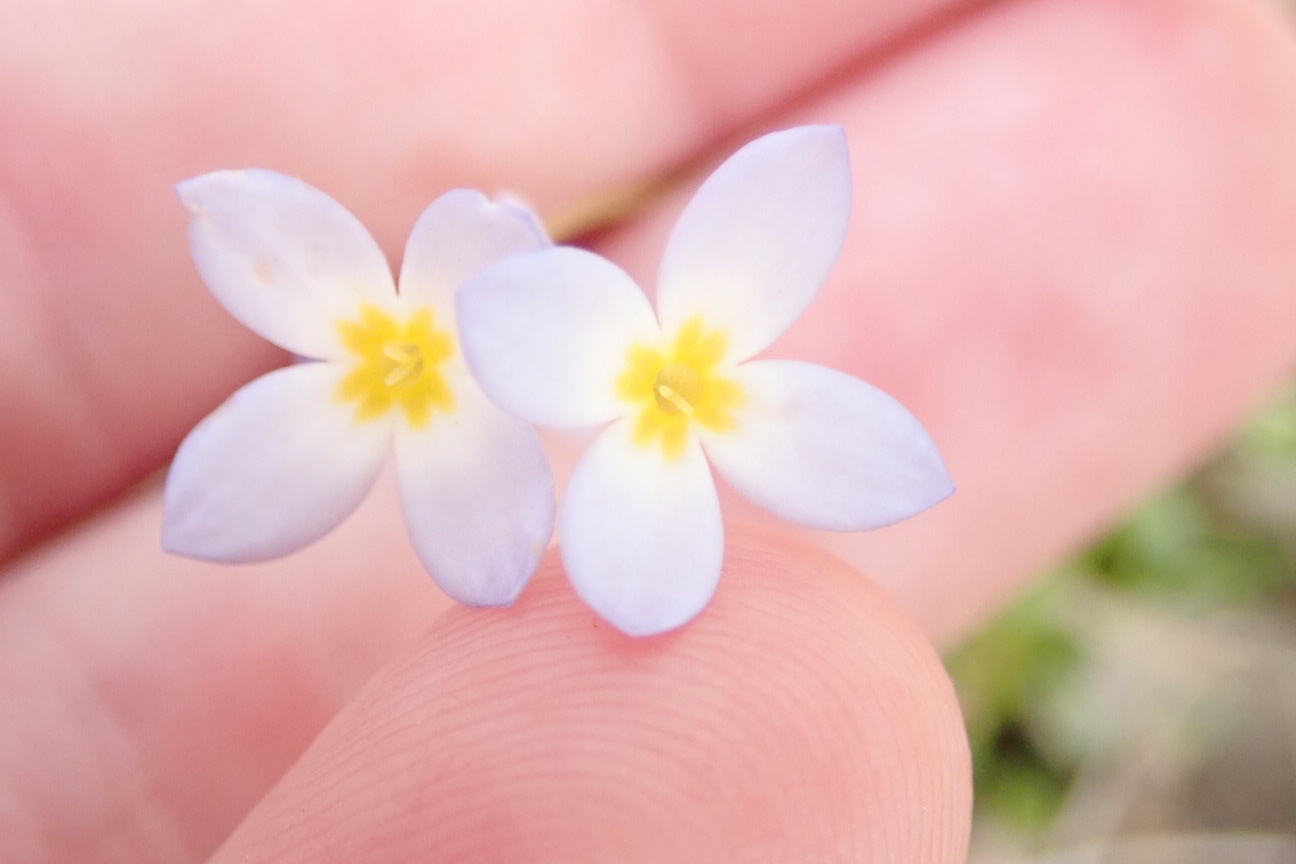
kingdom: Plantae
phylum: Tracheophyta
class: Magnoliopsida
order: Gentianales
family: Rubiaceae
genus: Houstonia
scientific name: Houstonia caerulea
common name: Bluets
